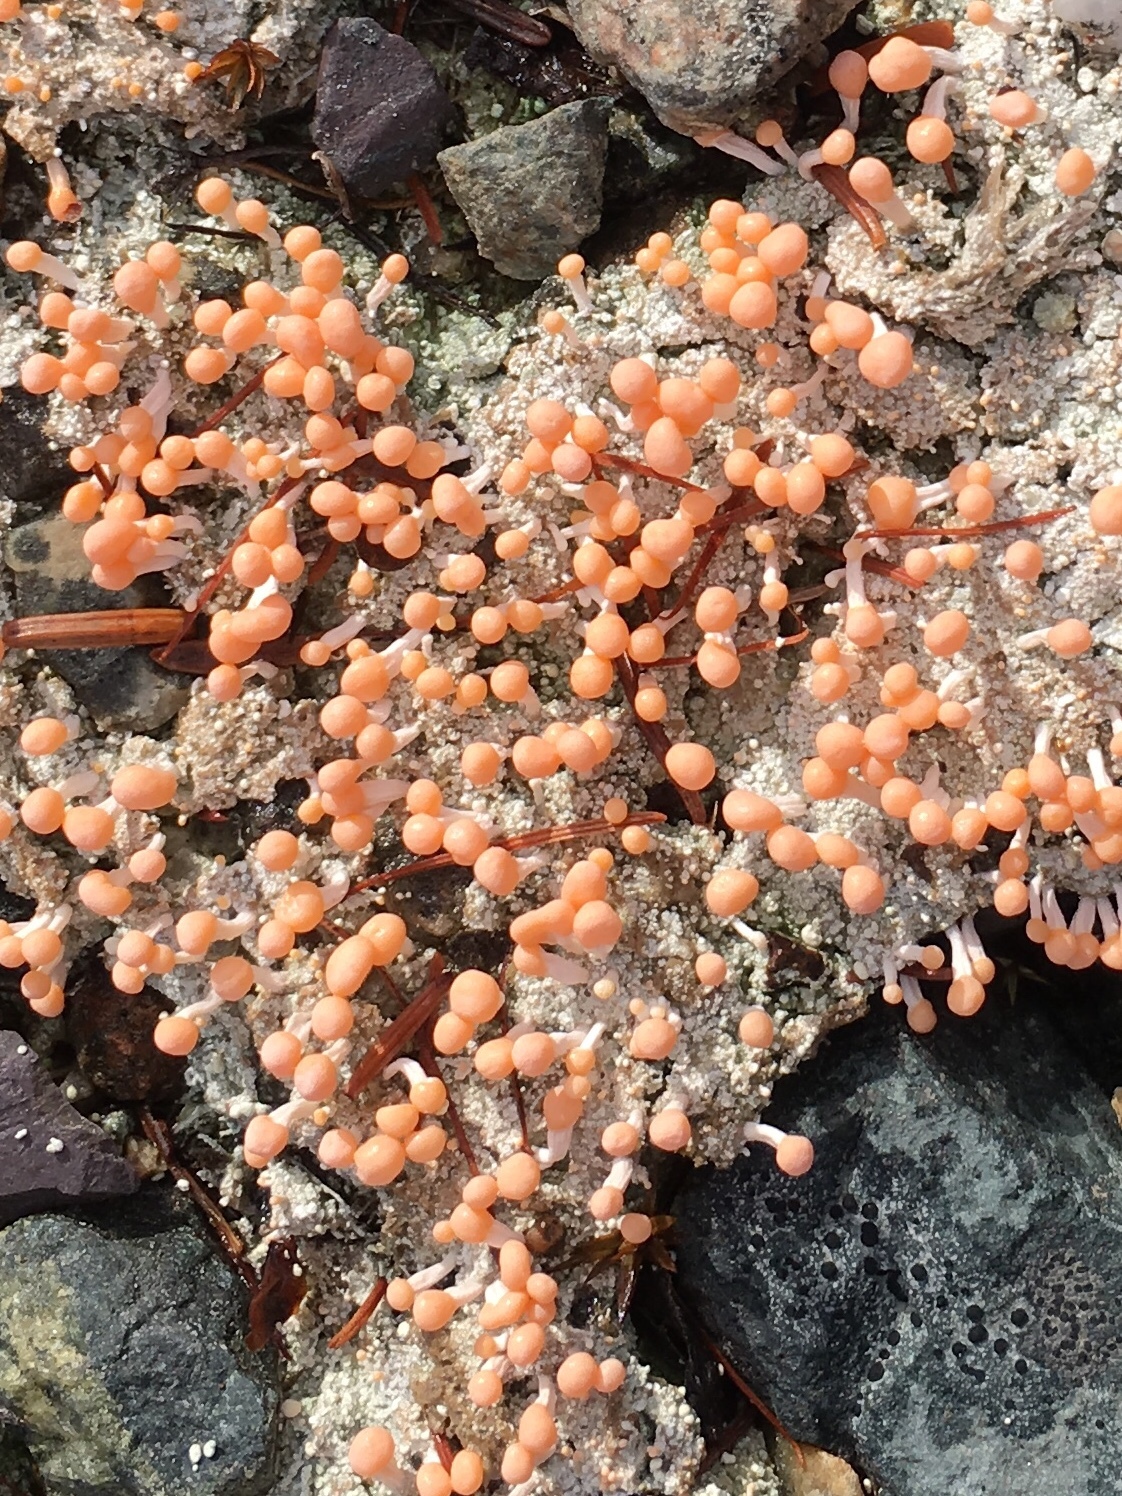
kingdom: Fungi
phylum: Ascomycota
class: Lecanoromycetes
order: Pertusariales
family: Icmadophilaceae
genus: Dibaeis
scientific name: Dibaeis baeomyces
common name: Pink earth lichen
